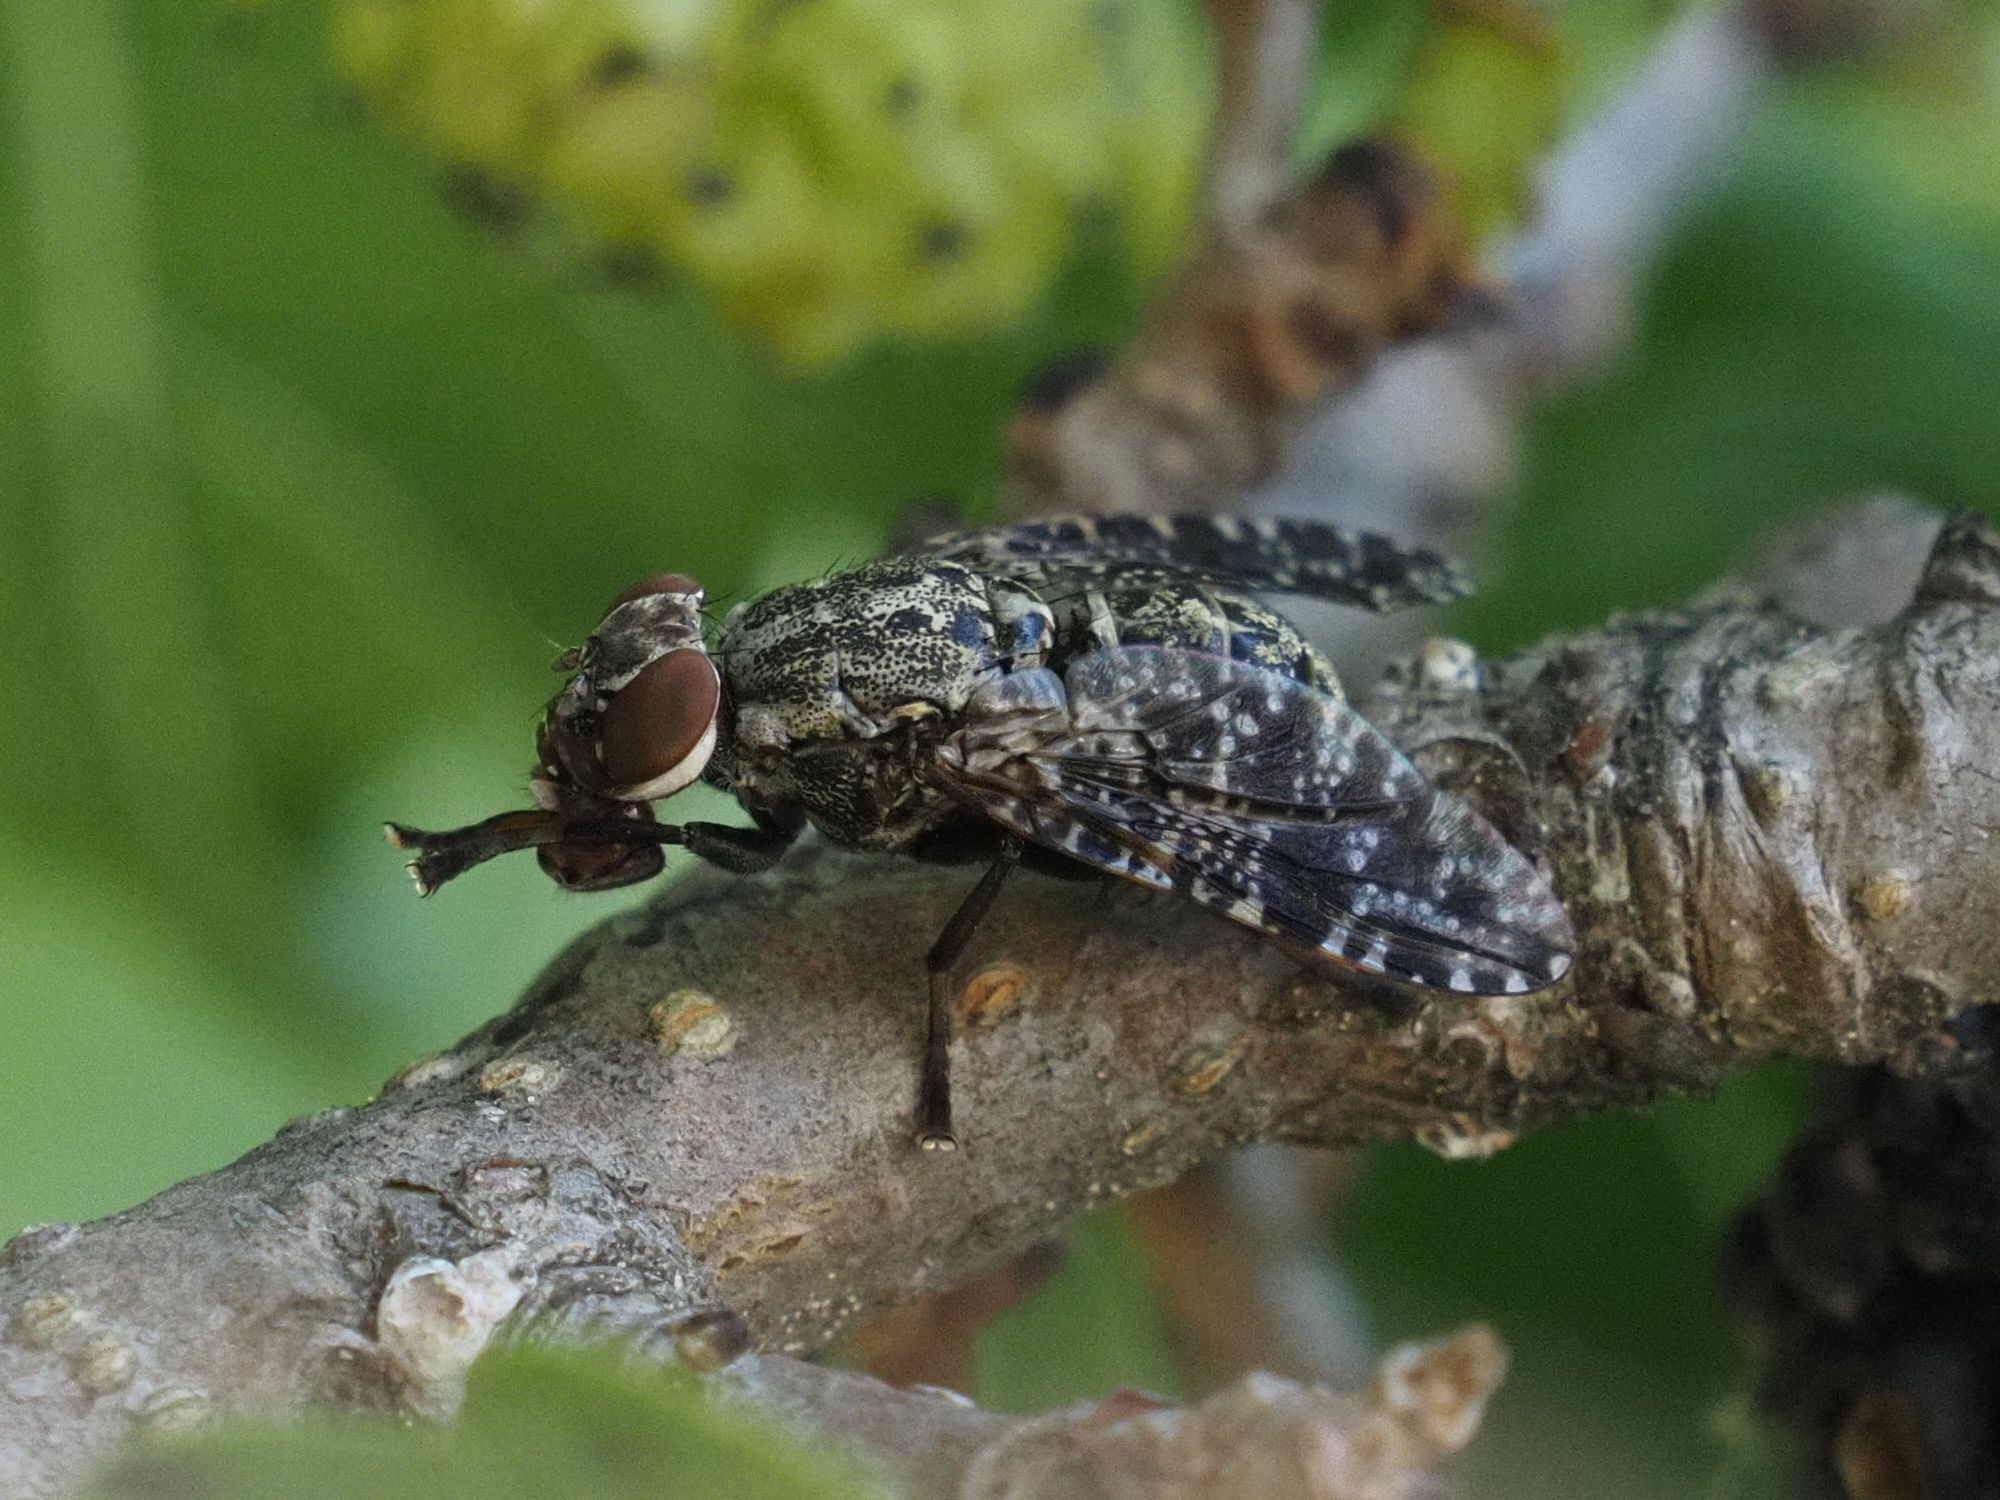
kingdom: Animalia
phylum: Arthropoda
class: Insecta
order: Diptera
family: Platystomatidae
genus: Platystoma
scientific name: Platystoma lugubre
